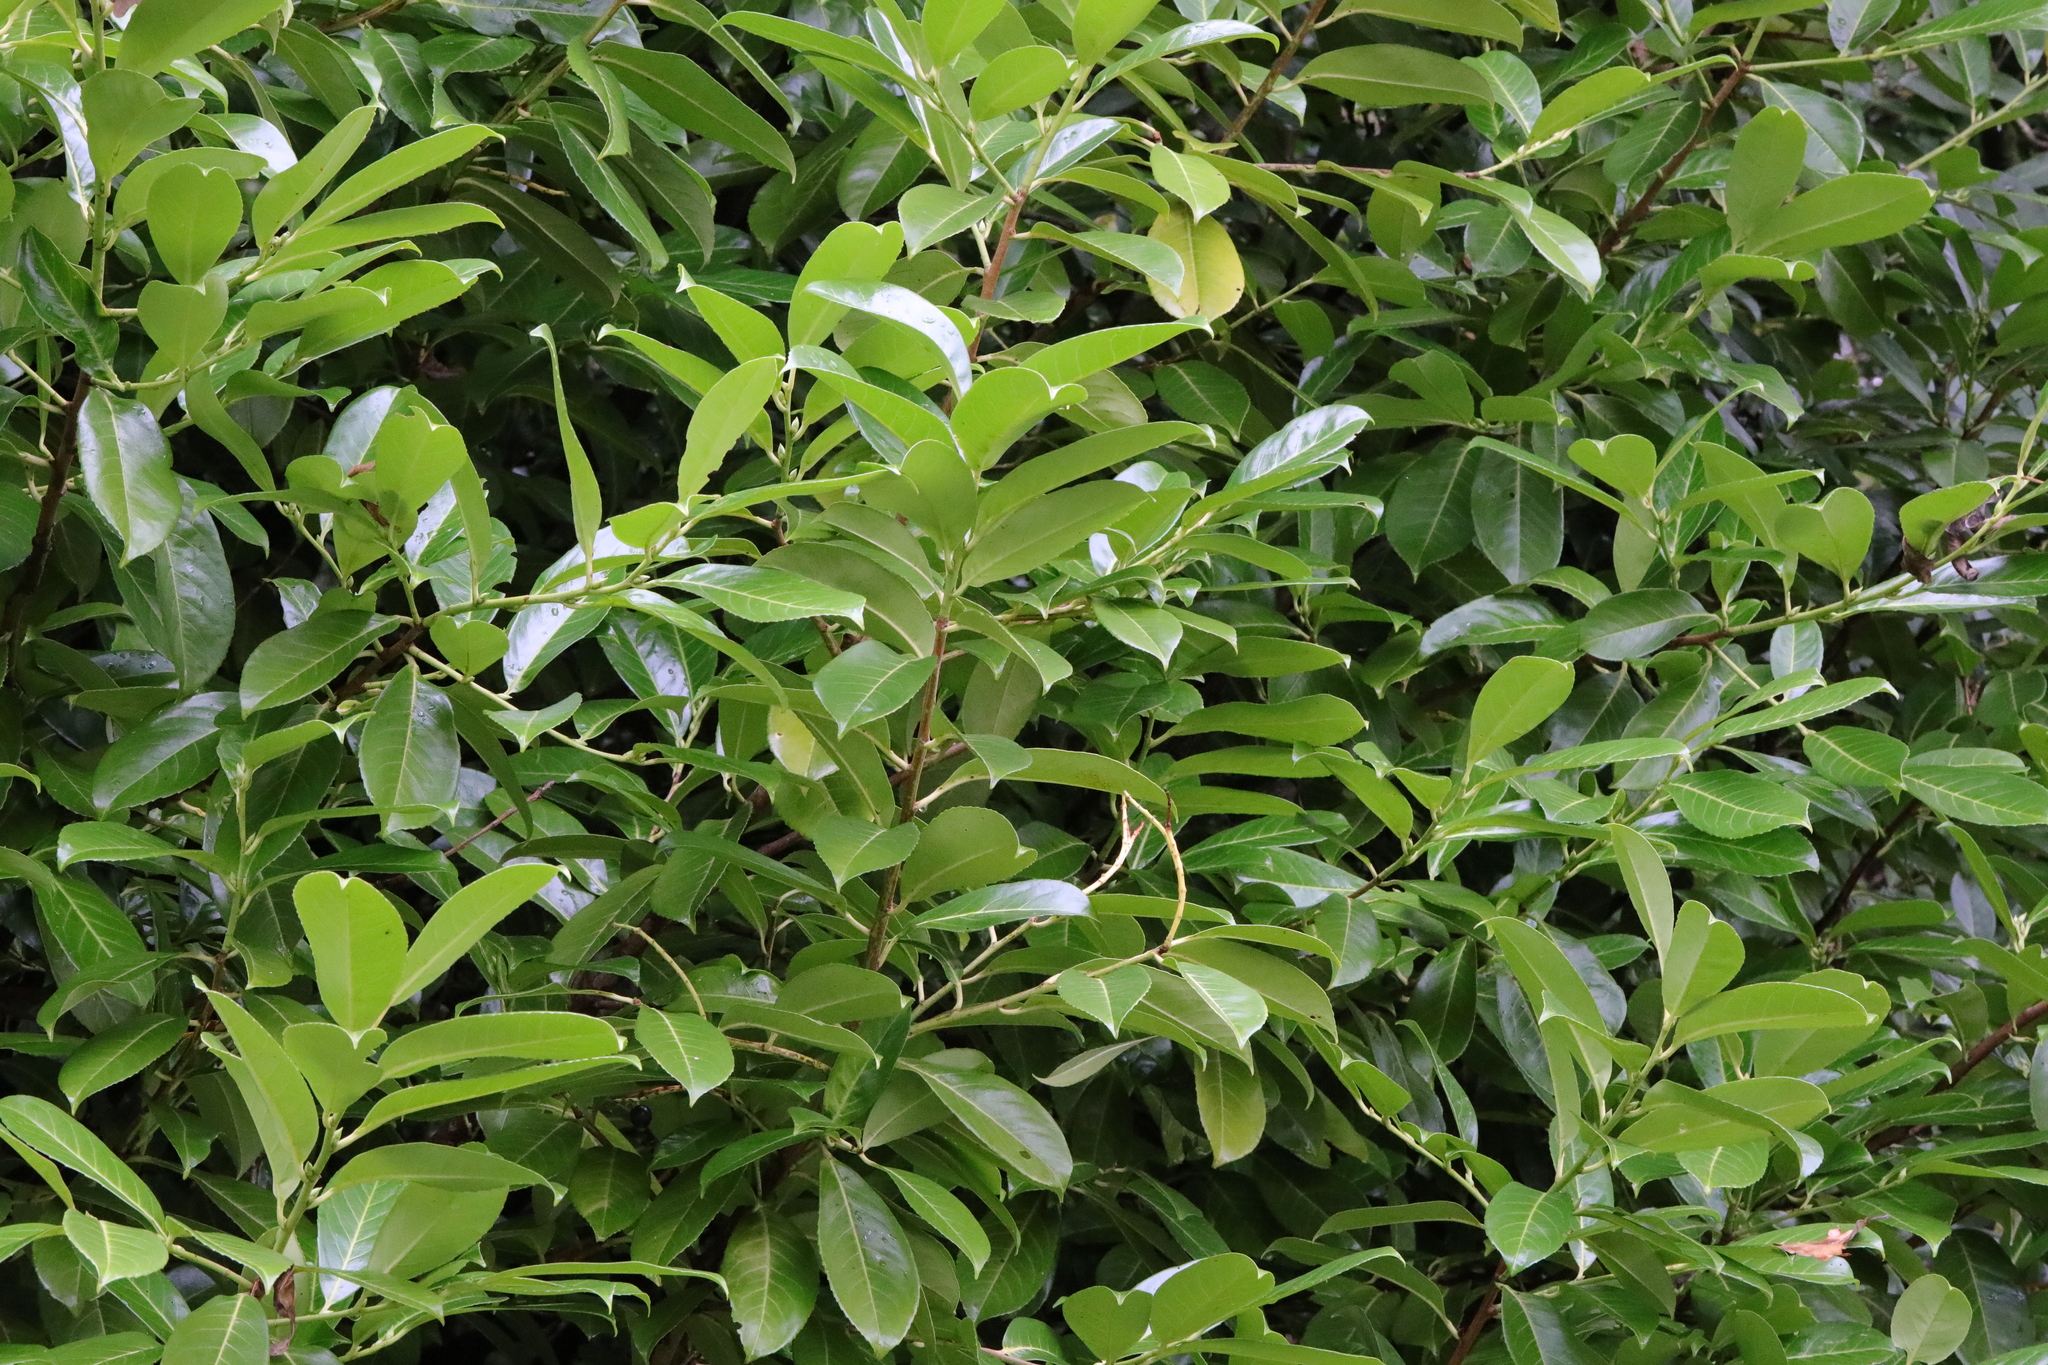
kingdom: Plantae
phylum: Tracheophyta
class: Magnoliopsida
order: Rosales
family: Rosaceae
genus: Prunus
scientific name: Prunus laurocerasus
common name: Cherry laurel
